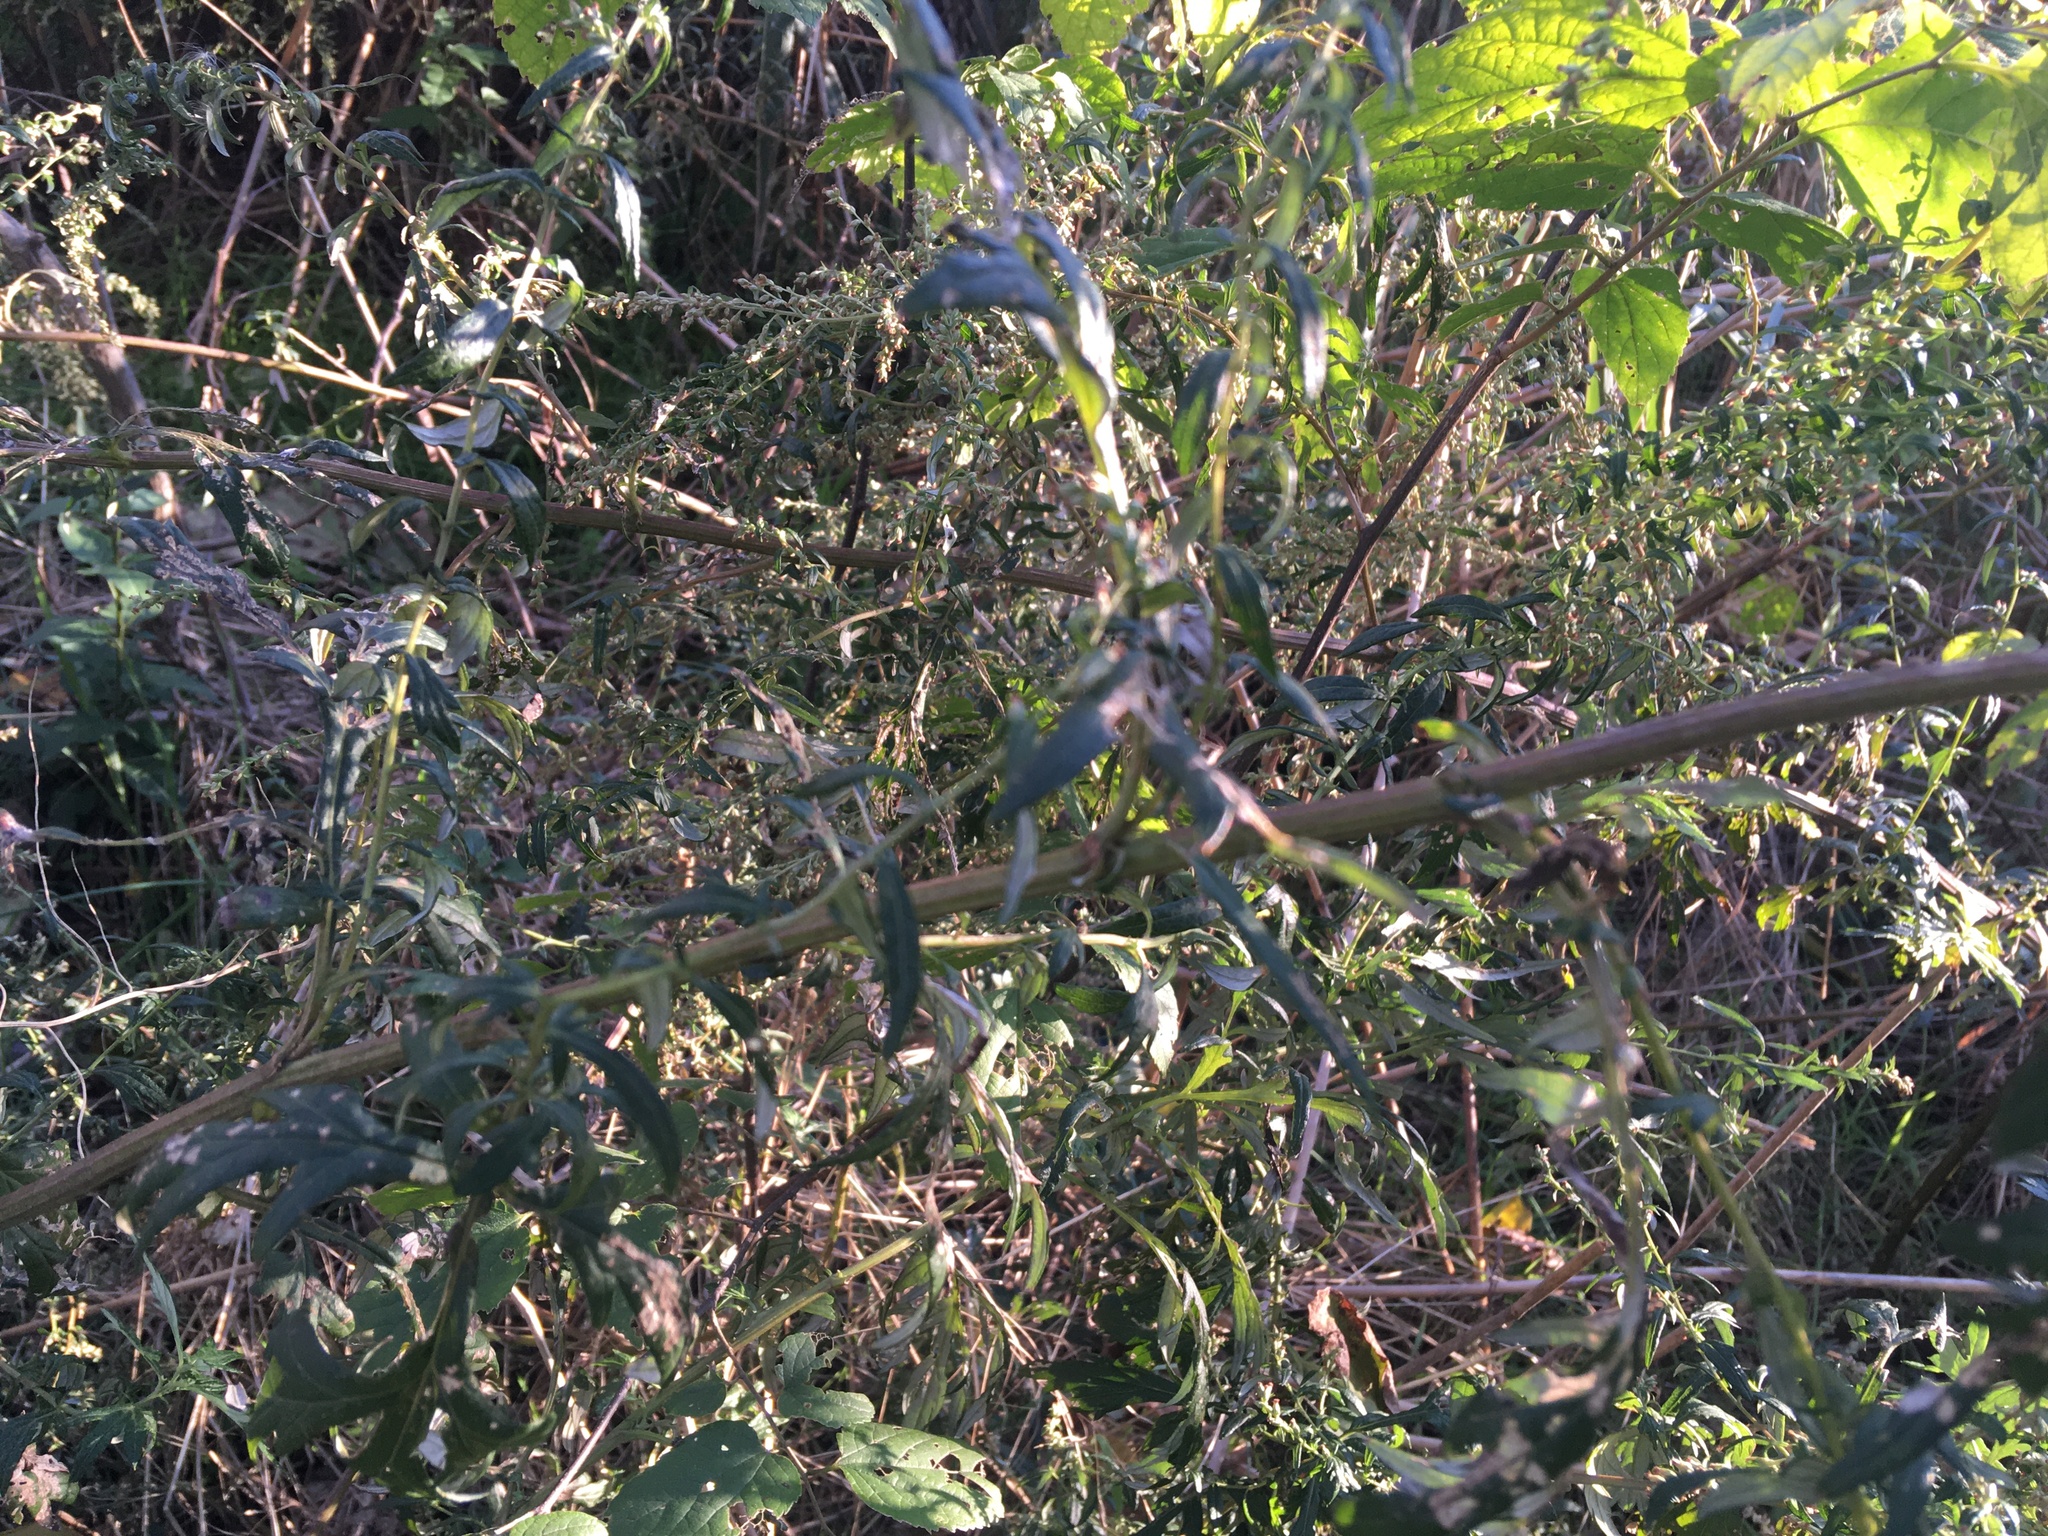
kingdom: Plantae
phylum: Tracheophyta
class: Magnoliopsida
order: Asterales
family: Asteraceae
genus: Artemisia
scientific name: Artemisia vulgaris
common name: Mugwort
